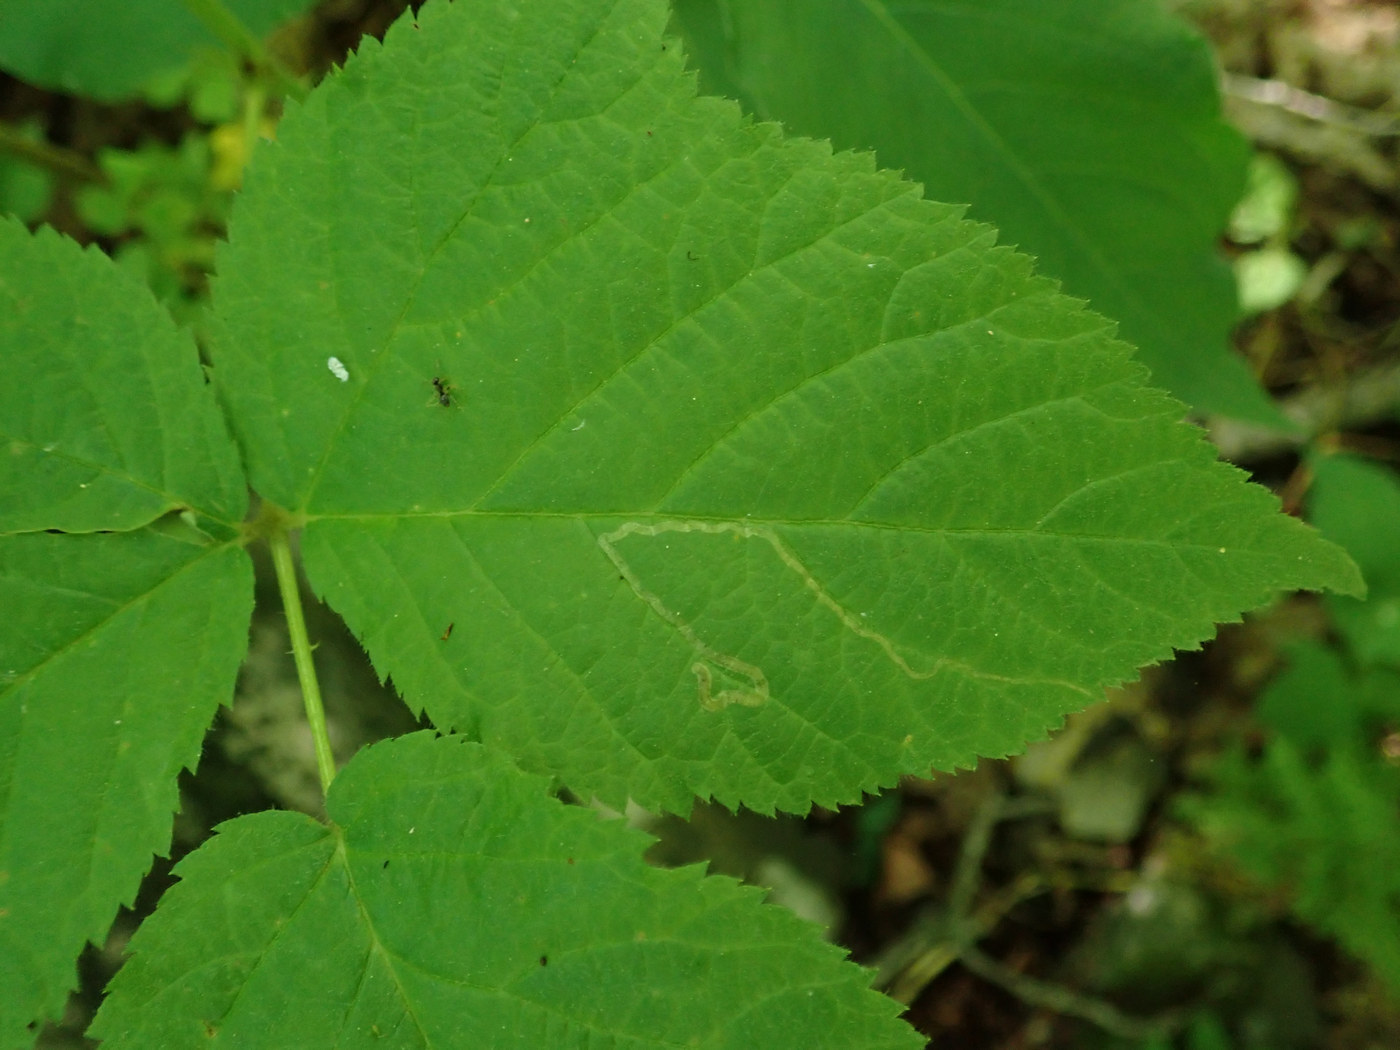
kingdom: Animalia
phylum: Arthropoda
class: Insecta
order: Diptera
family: Agromyzidae
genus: Agromyza
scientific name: Agromyza vockerothi
